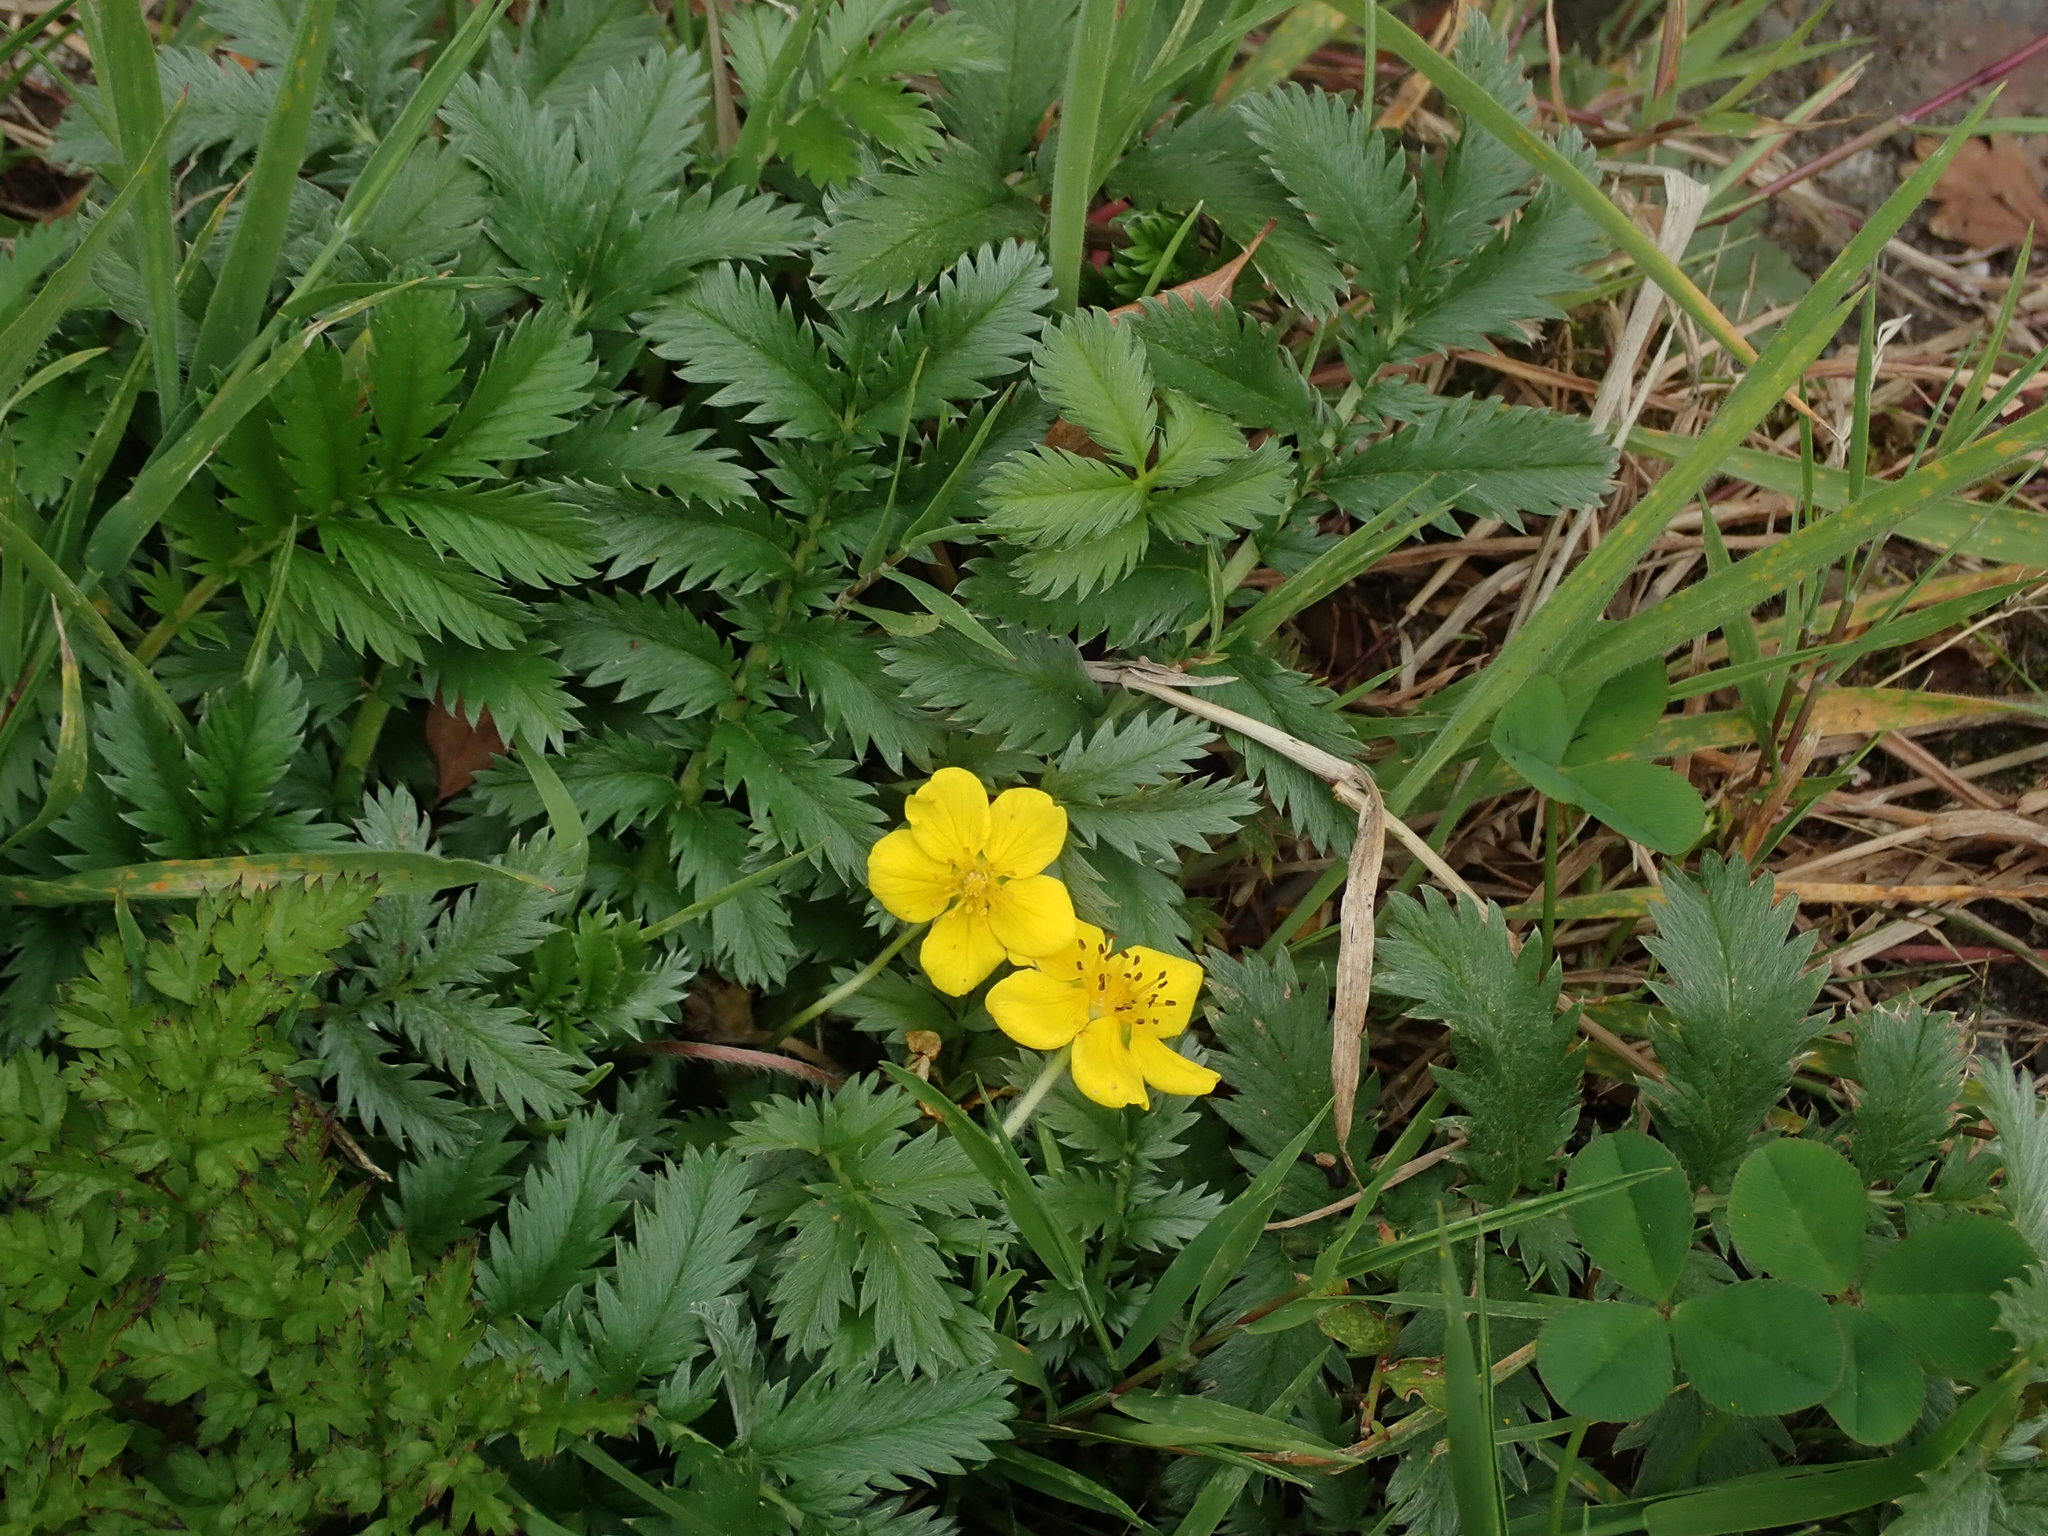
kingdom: Plantae
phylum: Tracheophyta
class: Magnoliopsida
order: Rosales
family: Rosaceae
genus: Argentina
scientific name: Argentina anserina
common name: Common silverweed
